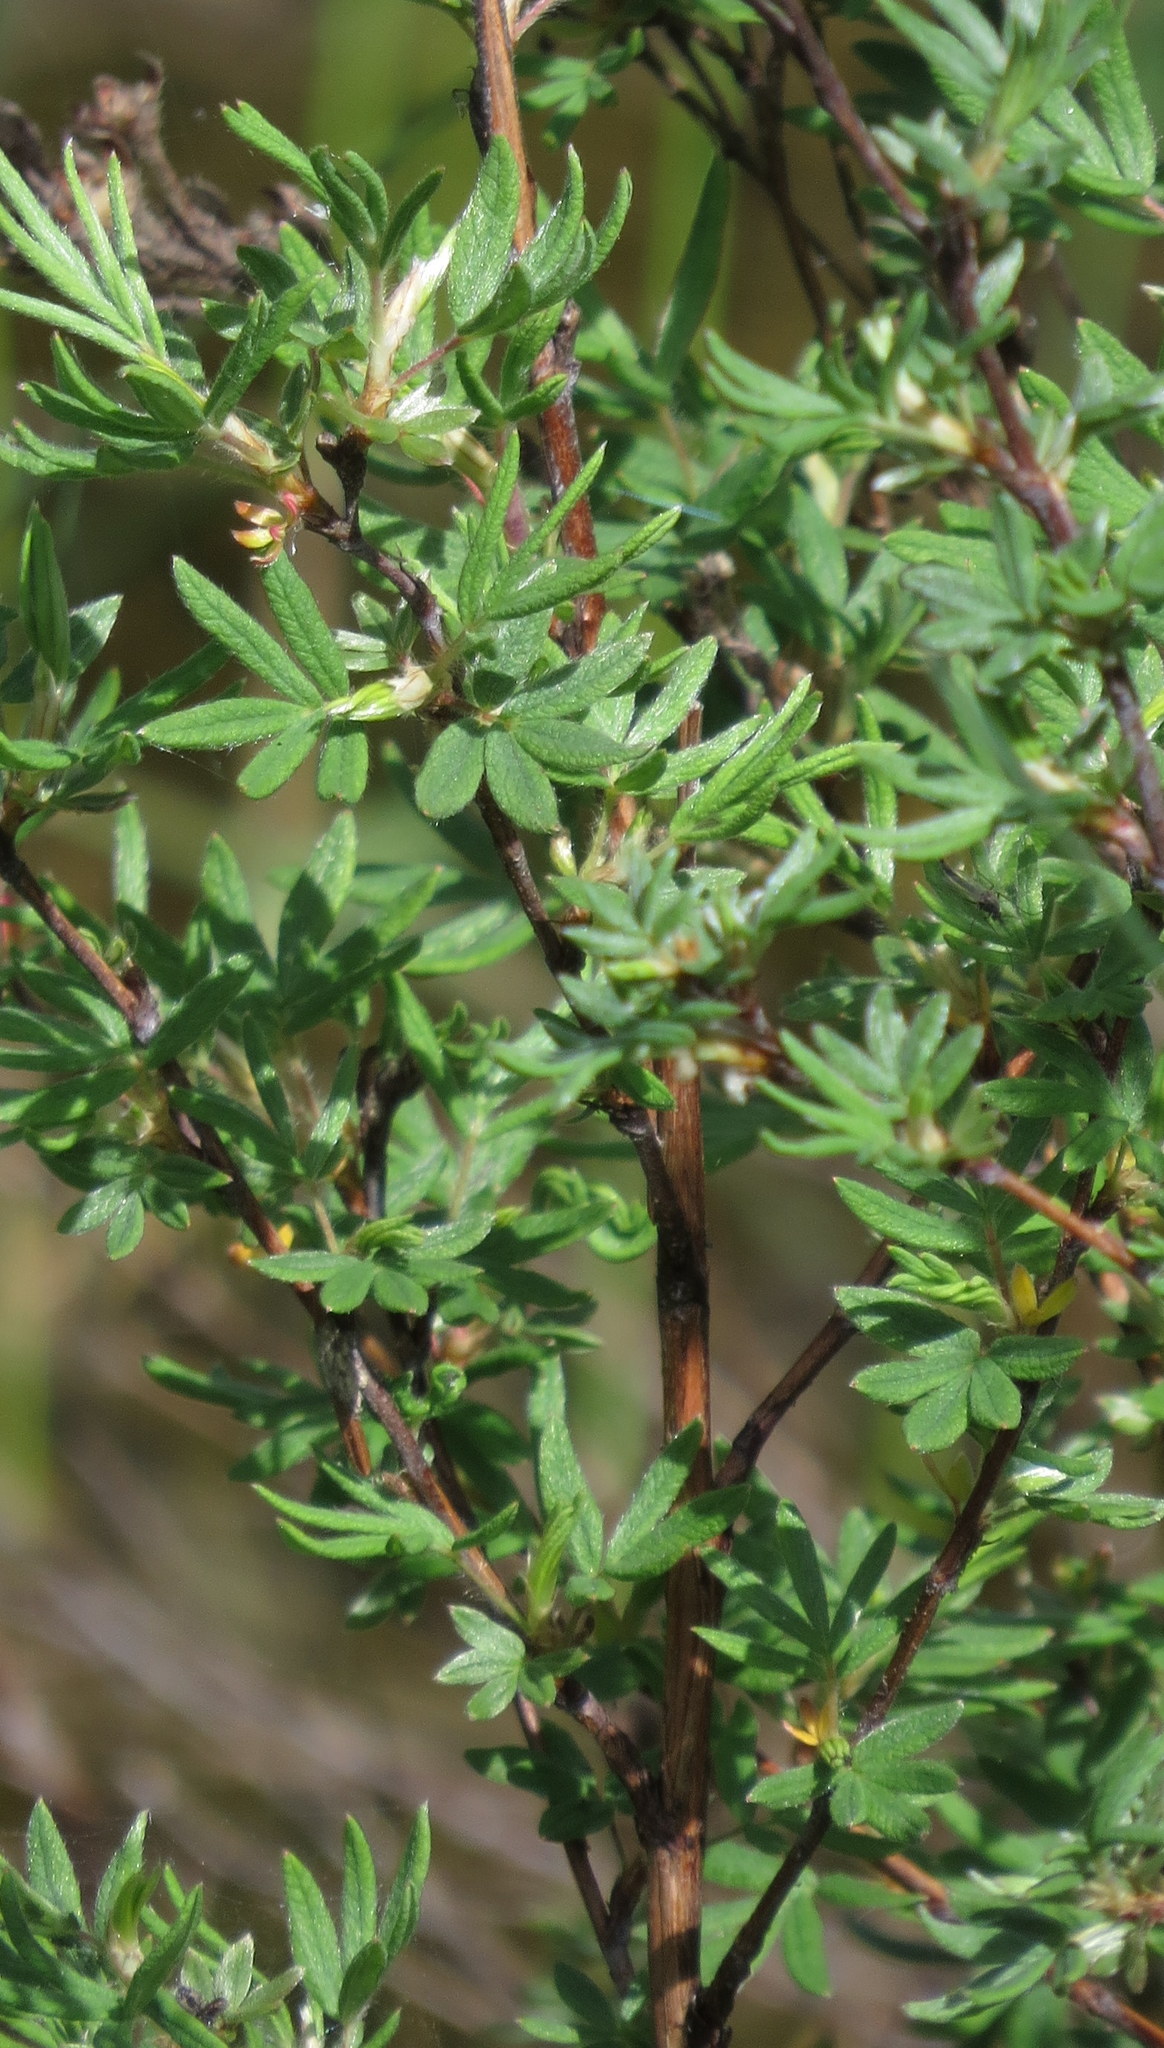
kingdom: Plantae
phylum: Tracheophyta
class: Magnoliopsida
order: Rosales
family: Rosaceae
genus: Dasiphora
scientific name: Dasiphora fruticosa
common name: Shrubby cinquefoil
